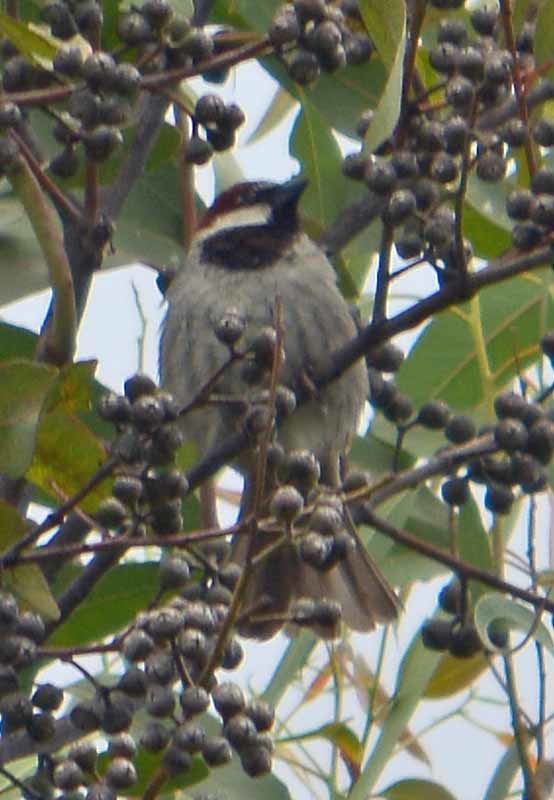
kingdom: Animalia
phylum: Chordata
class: Aves
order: Passeriformes
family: Passeridae
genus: Passer
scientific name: Passer domesticus
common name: House sparrow
